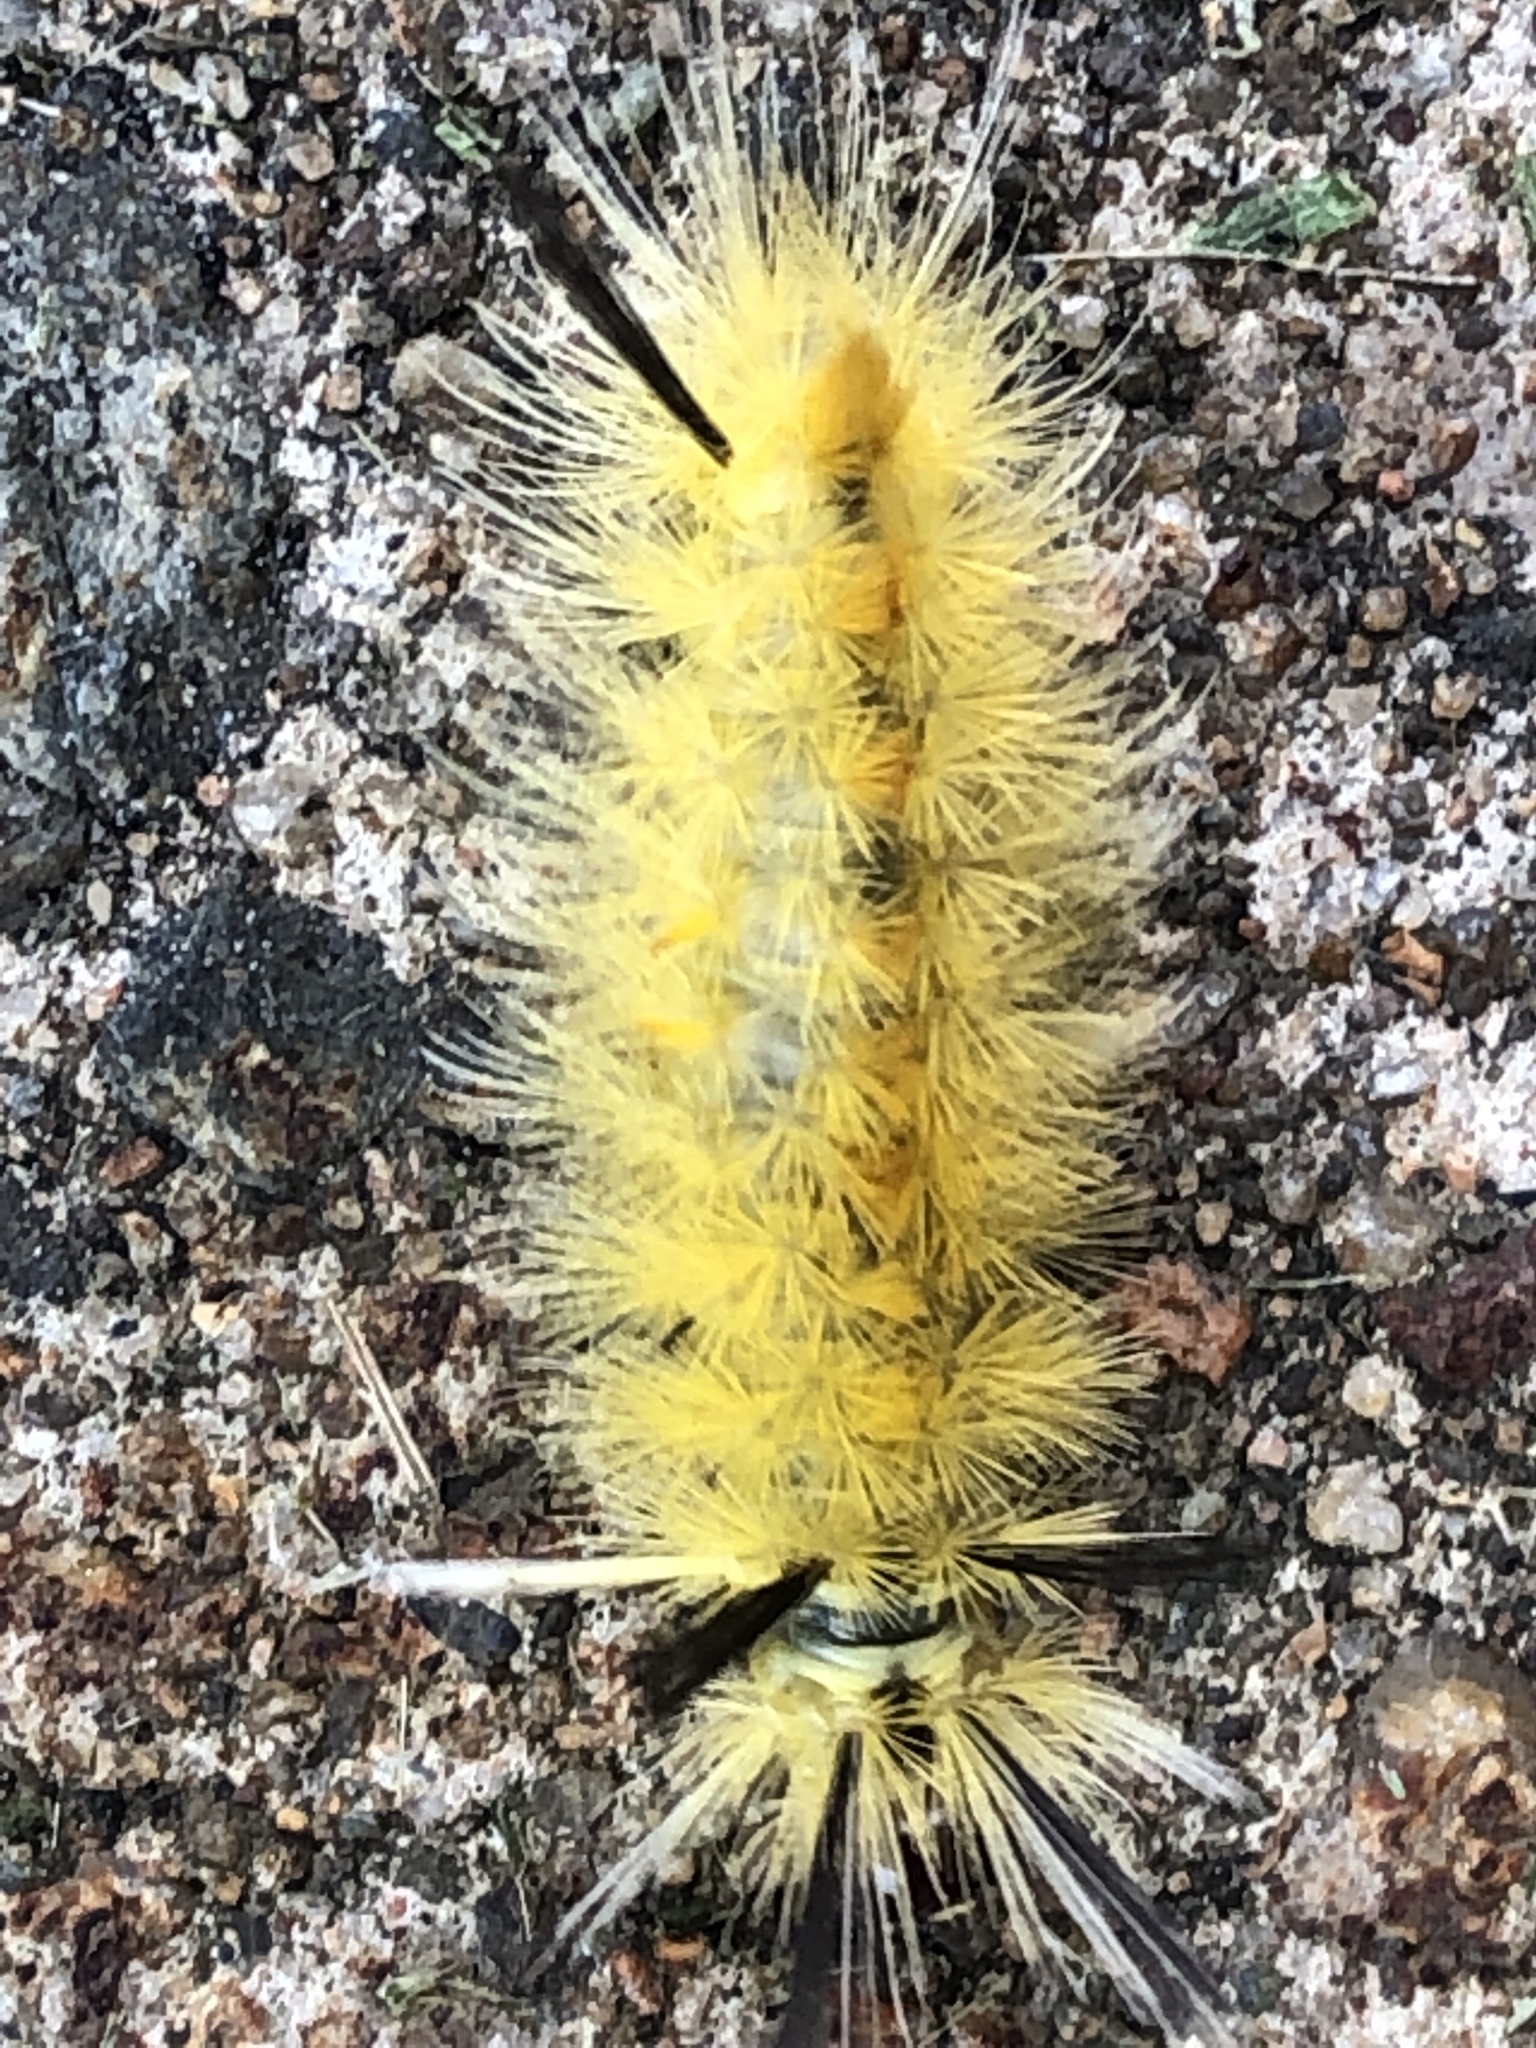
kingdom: Animalia
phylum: Arthropoda
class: Insecta
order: Lepidoptera
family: Erebidae
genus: Halysidota
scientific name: Halysidota tessellaris
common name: Banded tussock moth
